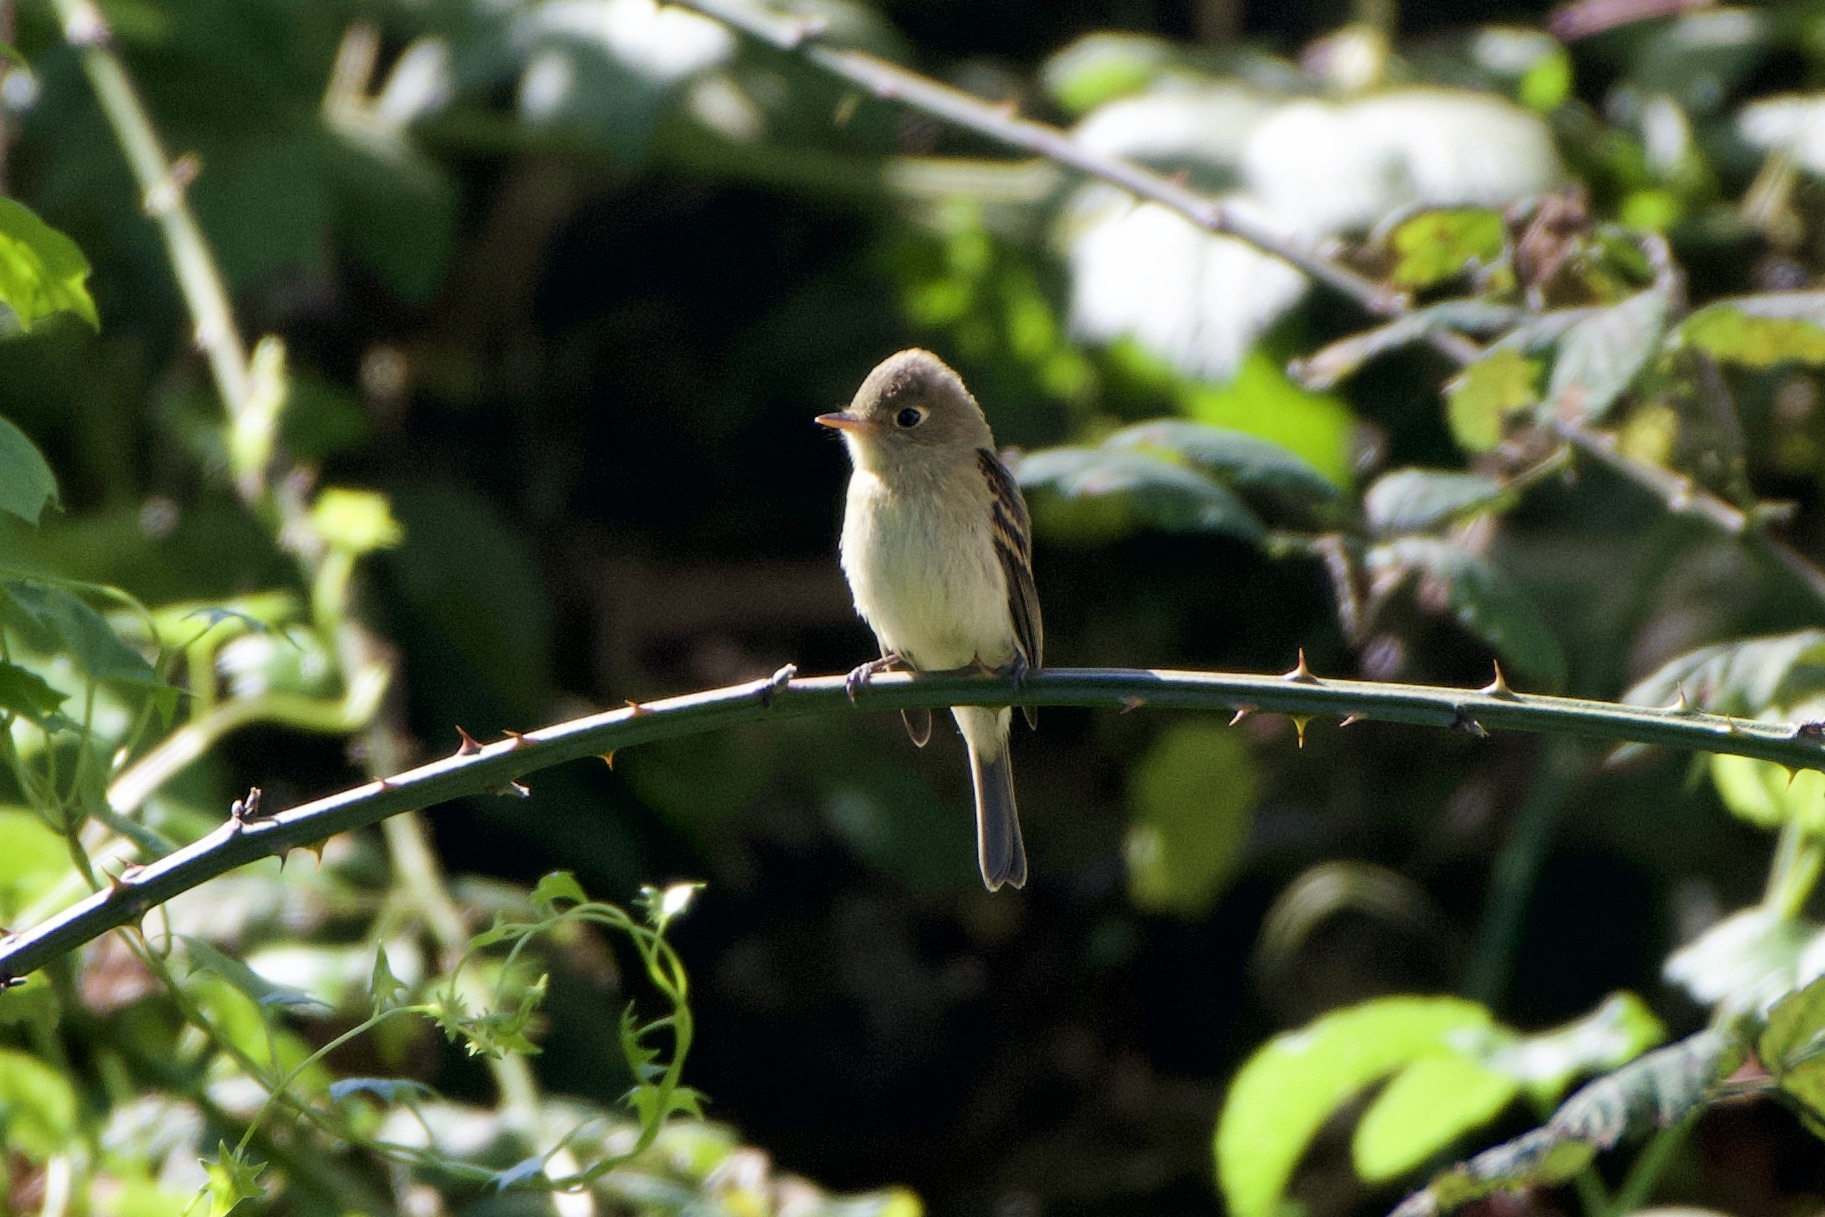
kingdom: Animalia
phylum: Chordata
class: Aves
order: Passeriformes
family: Tyrannidae
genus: Empidonax
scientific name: Empidonax difficilis
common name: Pacific-slope flycatcher
